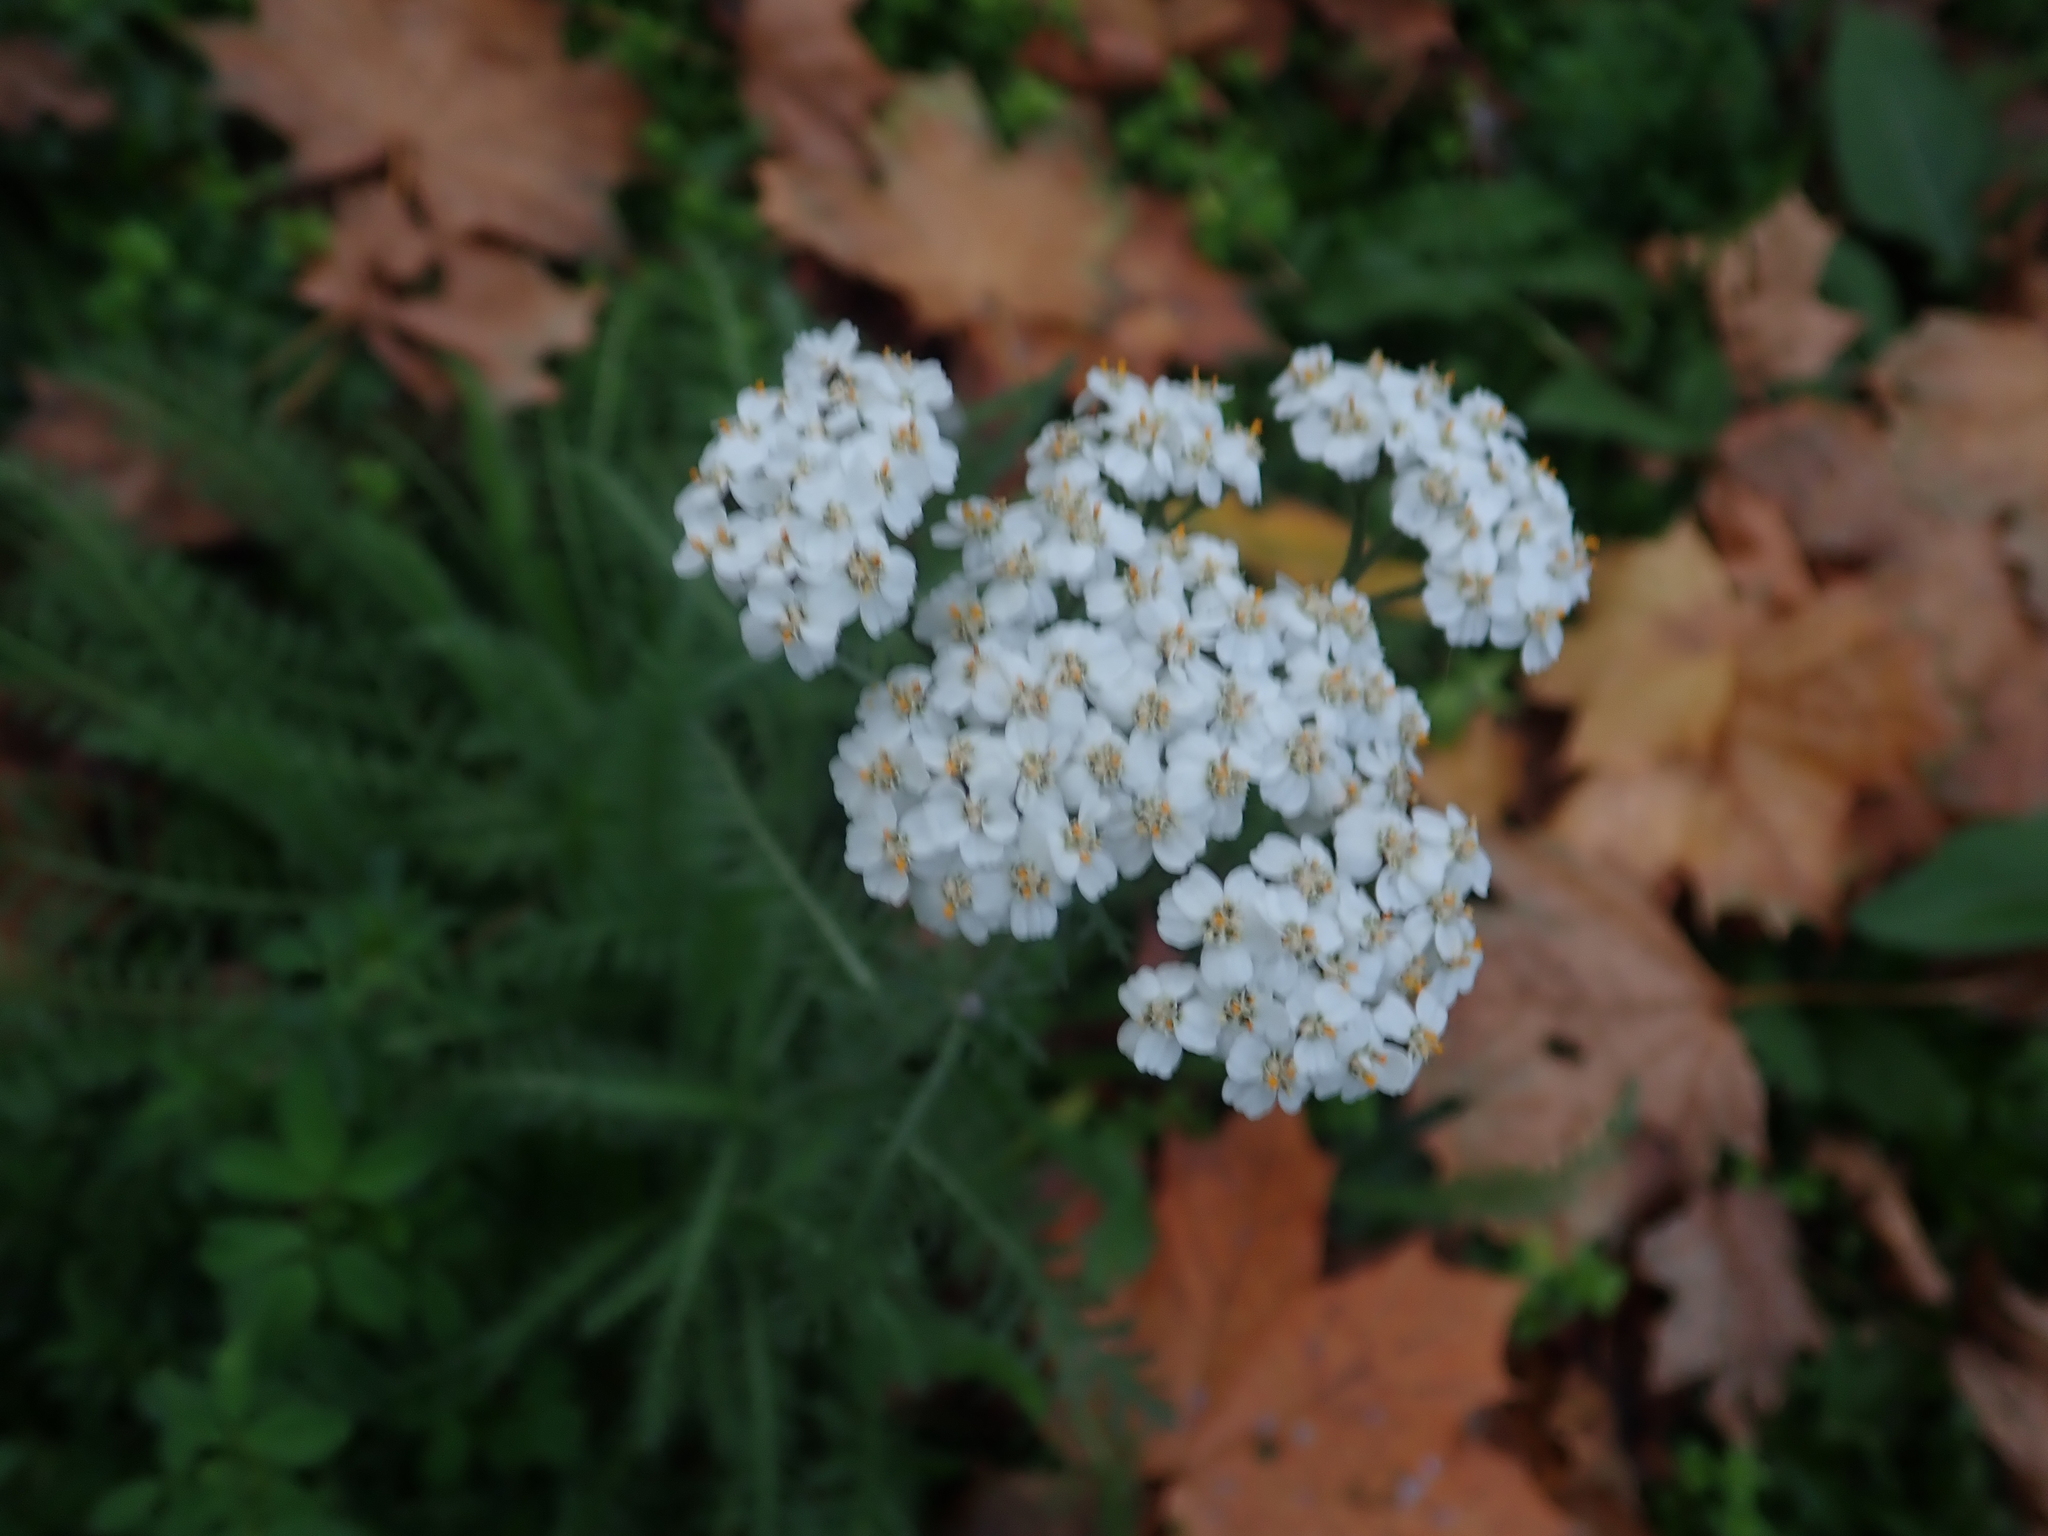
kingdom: Plantae
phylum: Tracheophyta
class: Magnoliopsida
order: Asterales
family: Asteraceae
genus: Achillea
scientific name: Achillea millefolium
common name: Yarrow
